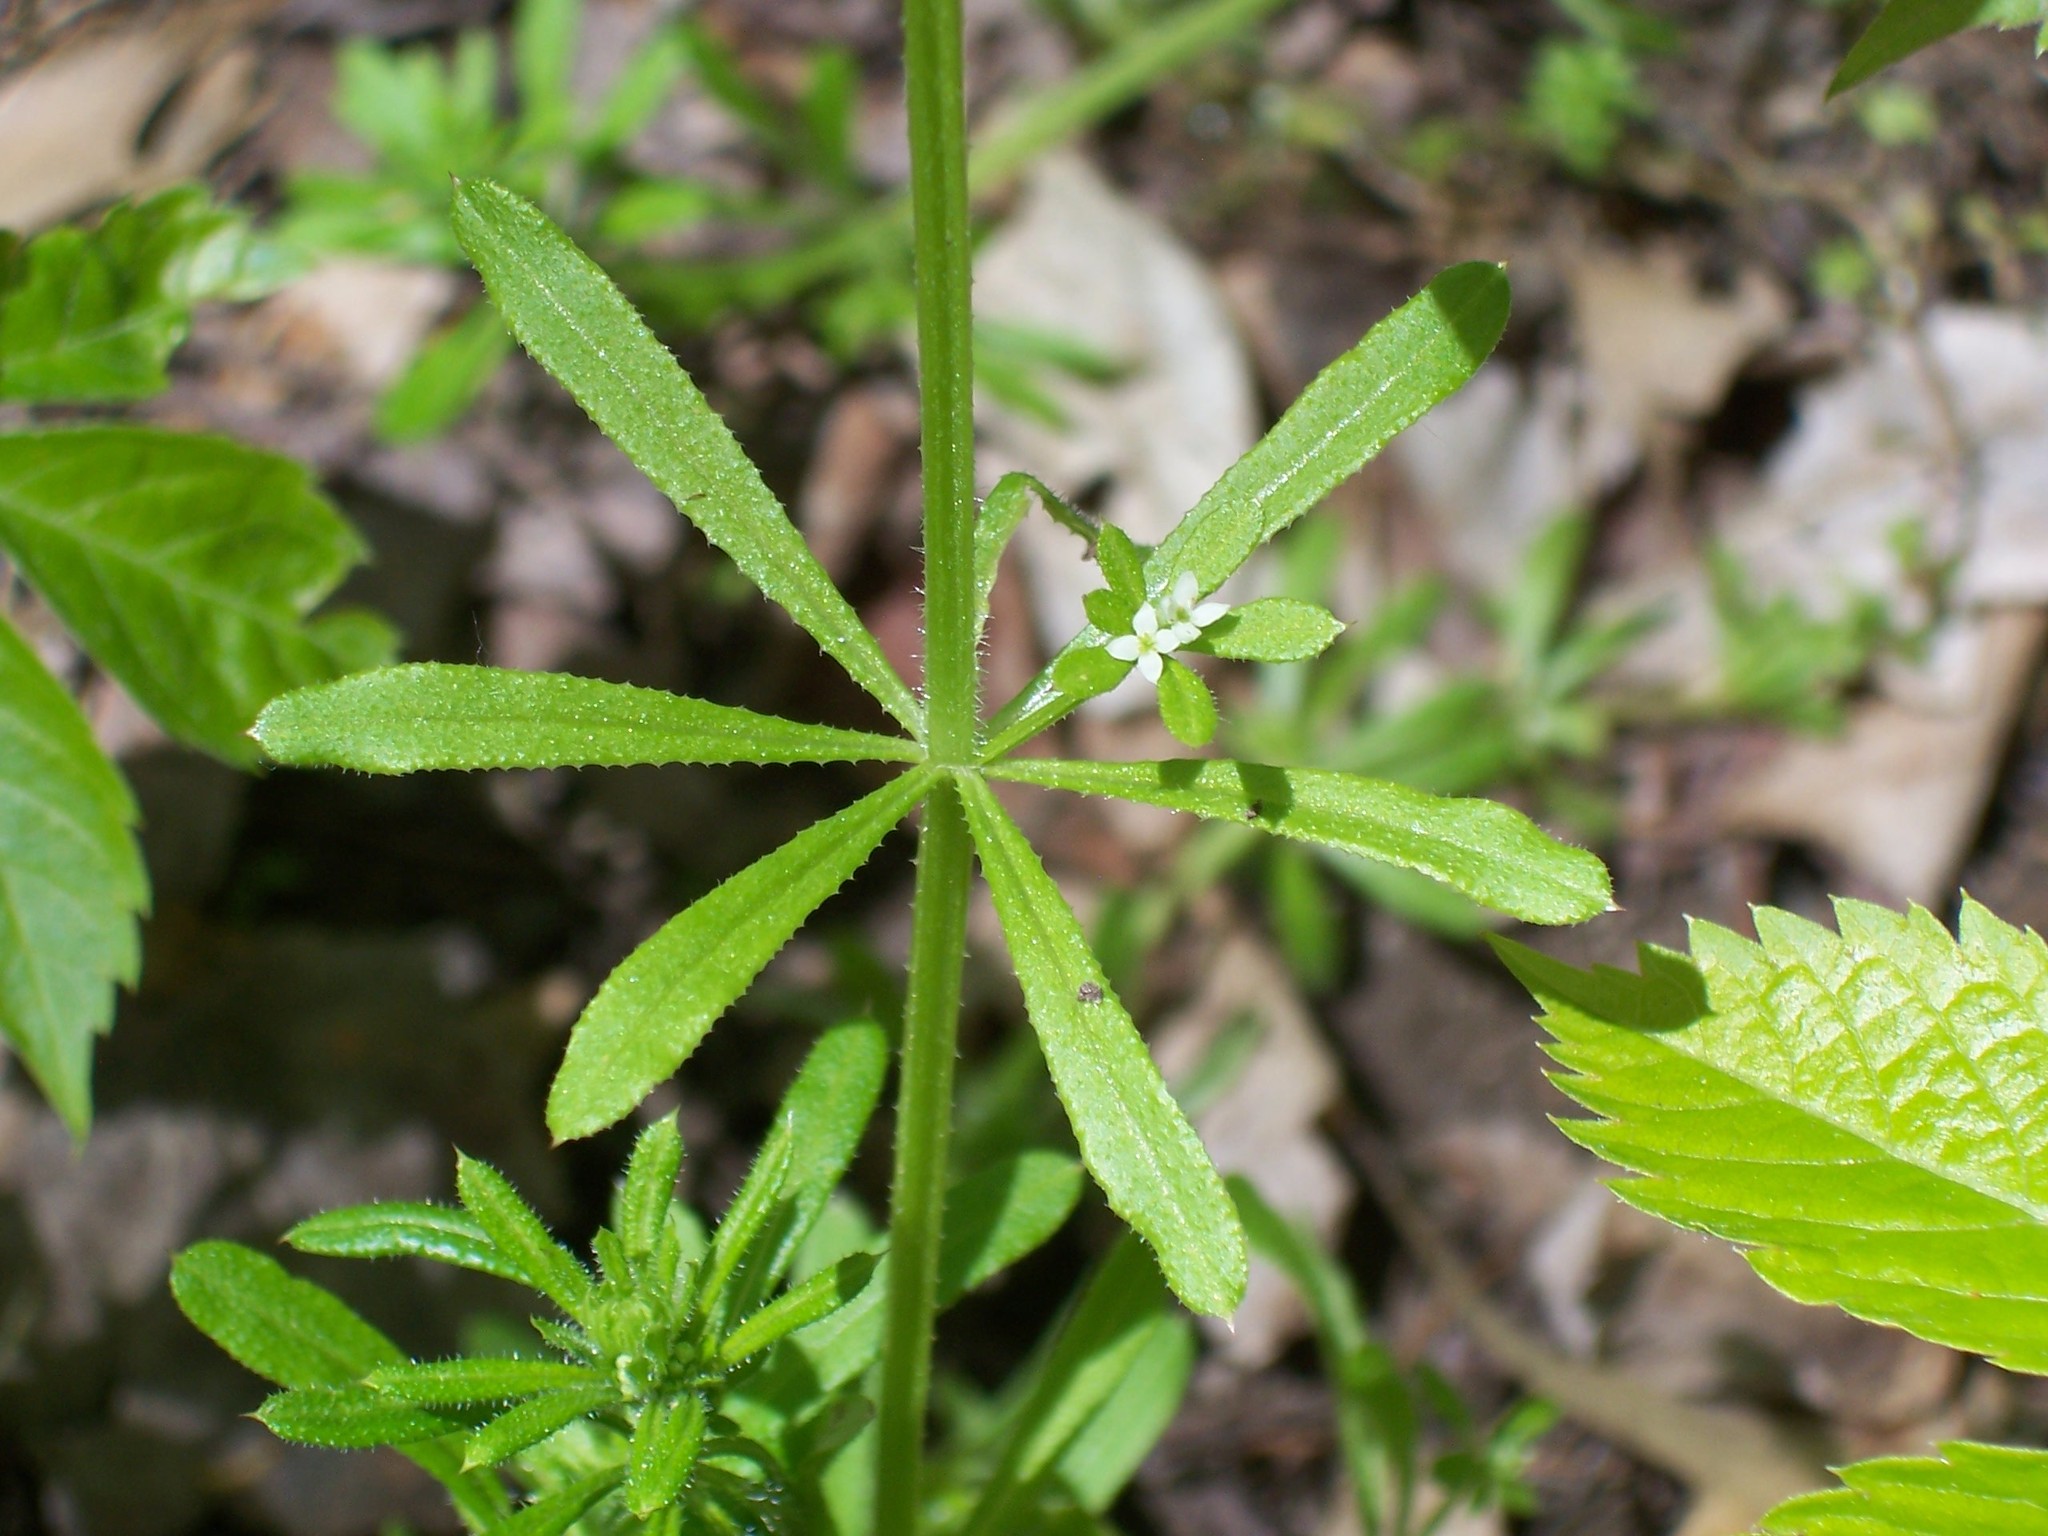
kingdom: Plantae
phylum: Tracheophyta
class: Magnoliopsida
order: Gentianales
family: Rubiaceae
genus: Galium
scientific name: Galium aparine
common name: Cleavers
